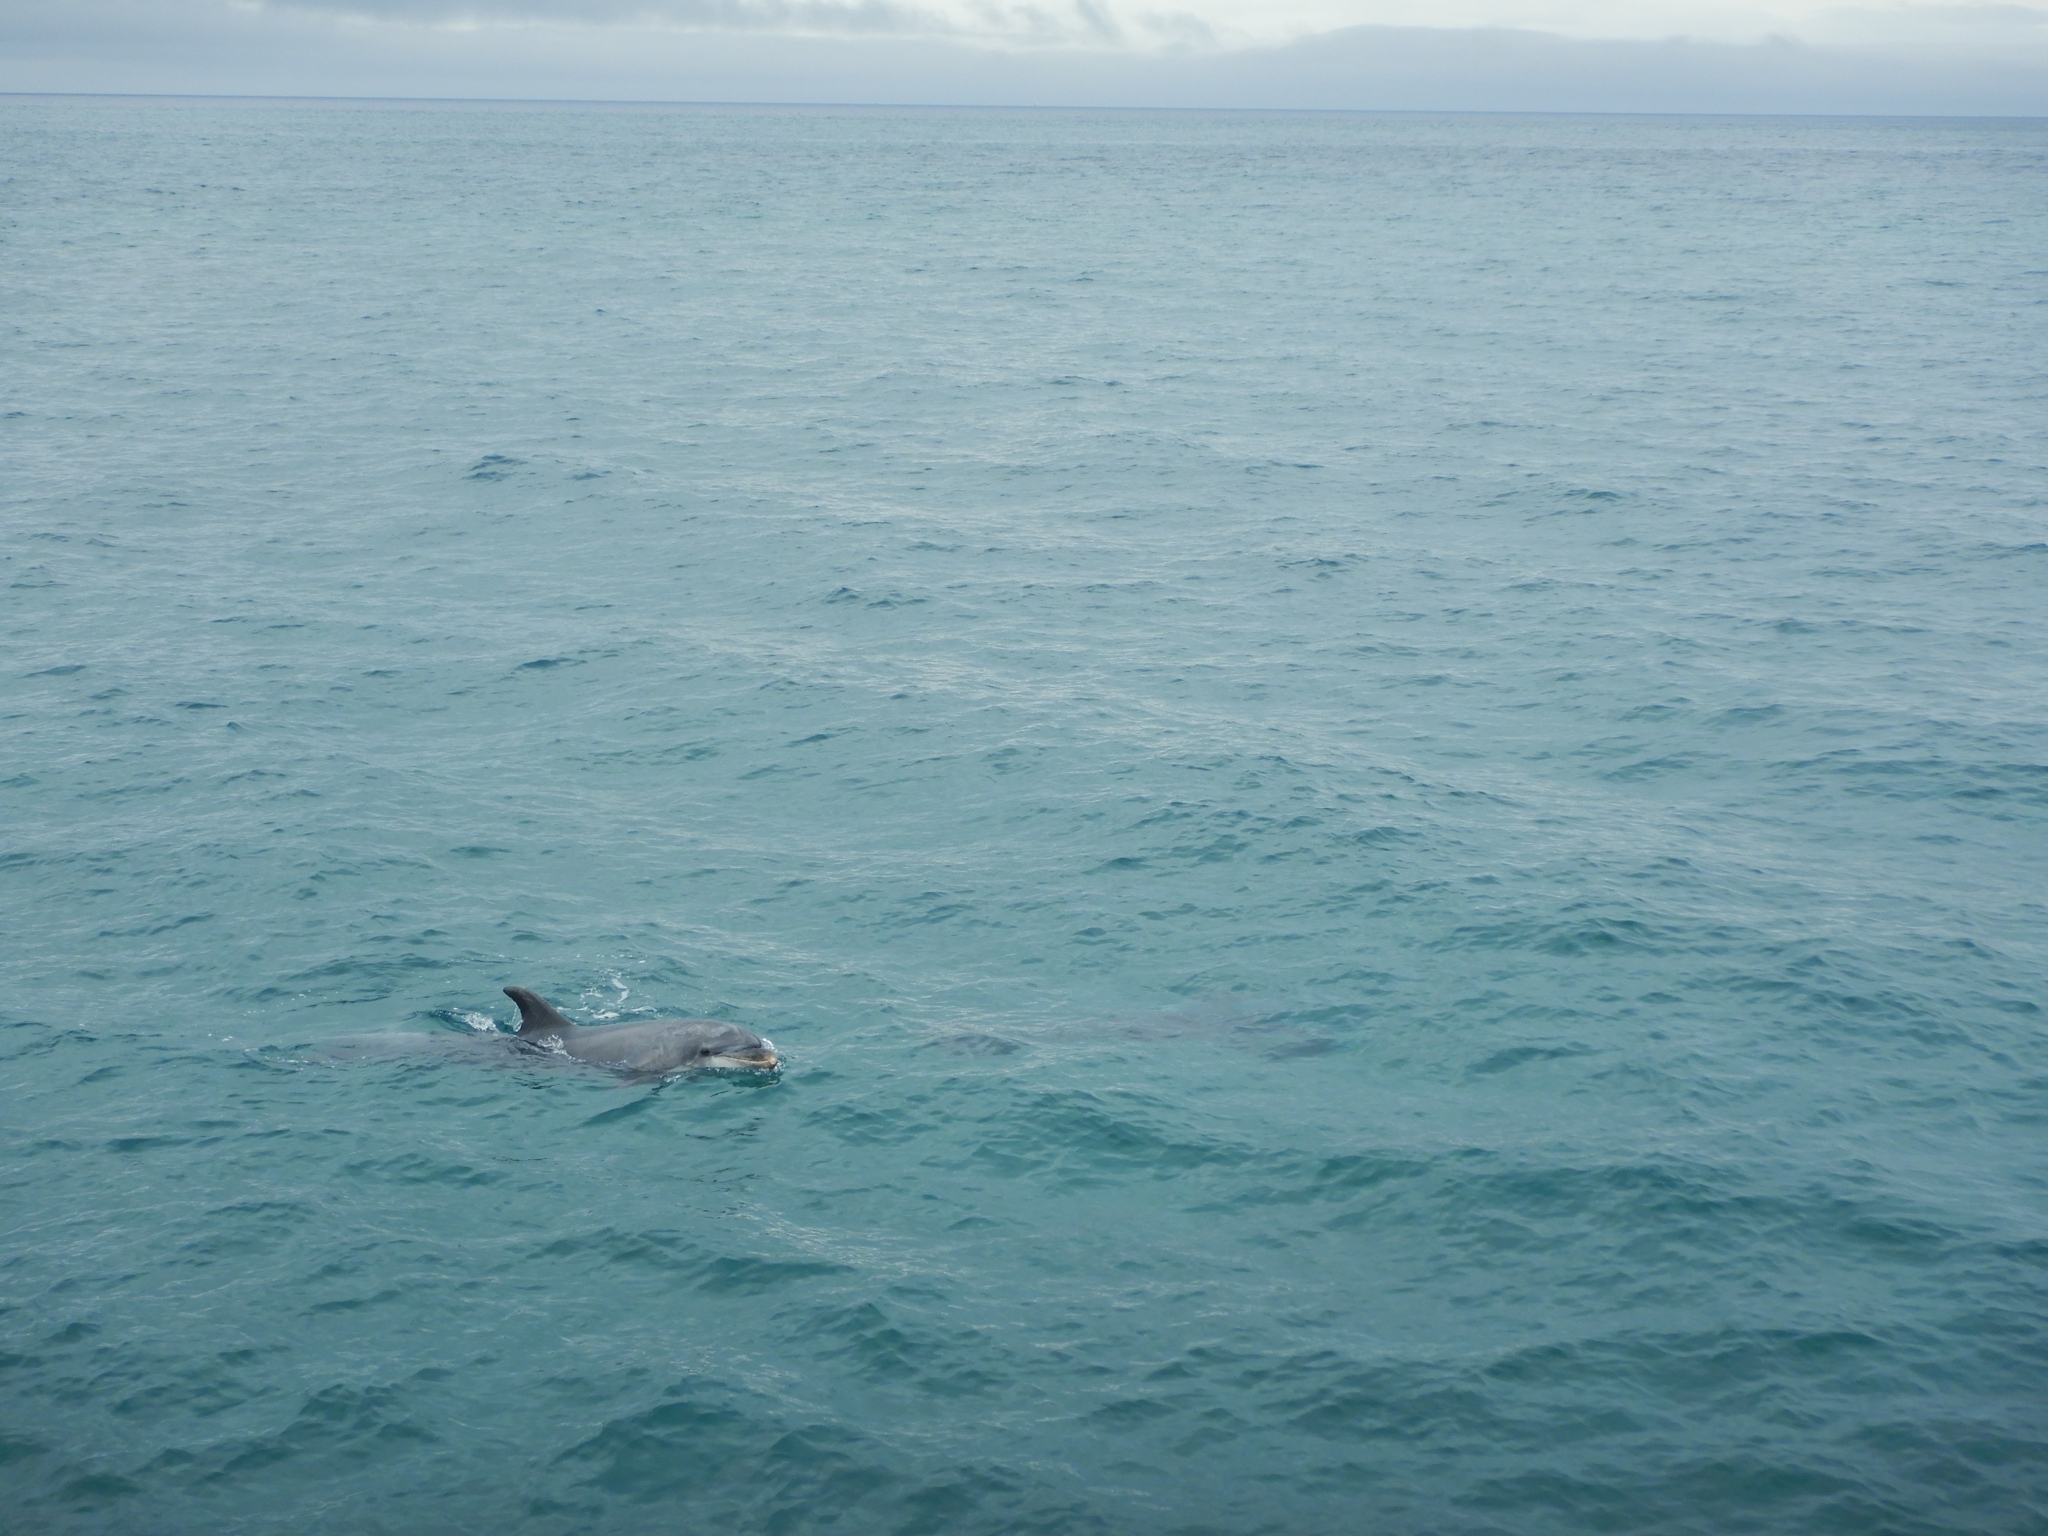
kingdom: Animalia
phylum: Chordata
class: Mammalia
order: Cetacea
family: Delphinidae
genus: Tursiops
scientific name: Tursiops truncatus
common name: Bottlenose dolphin
